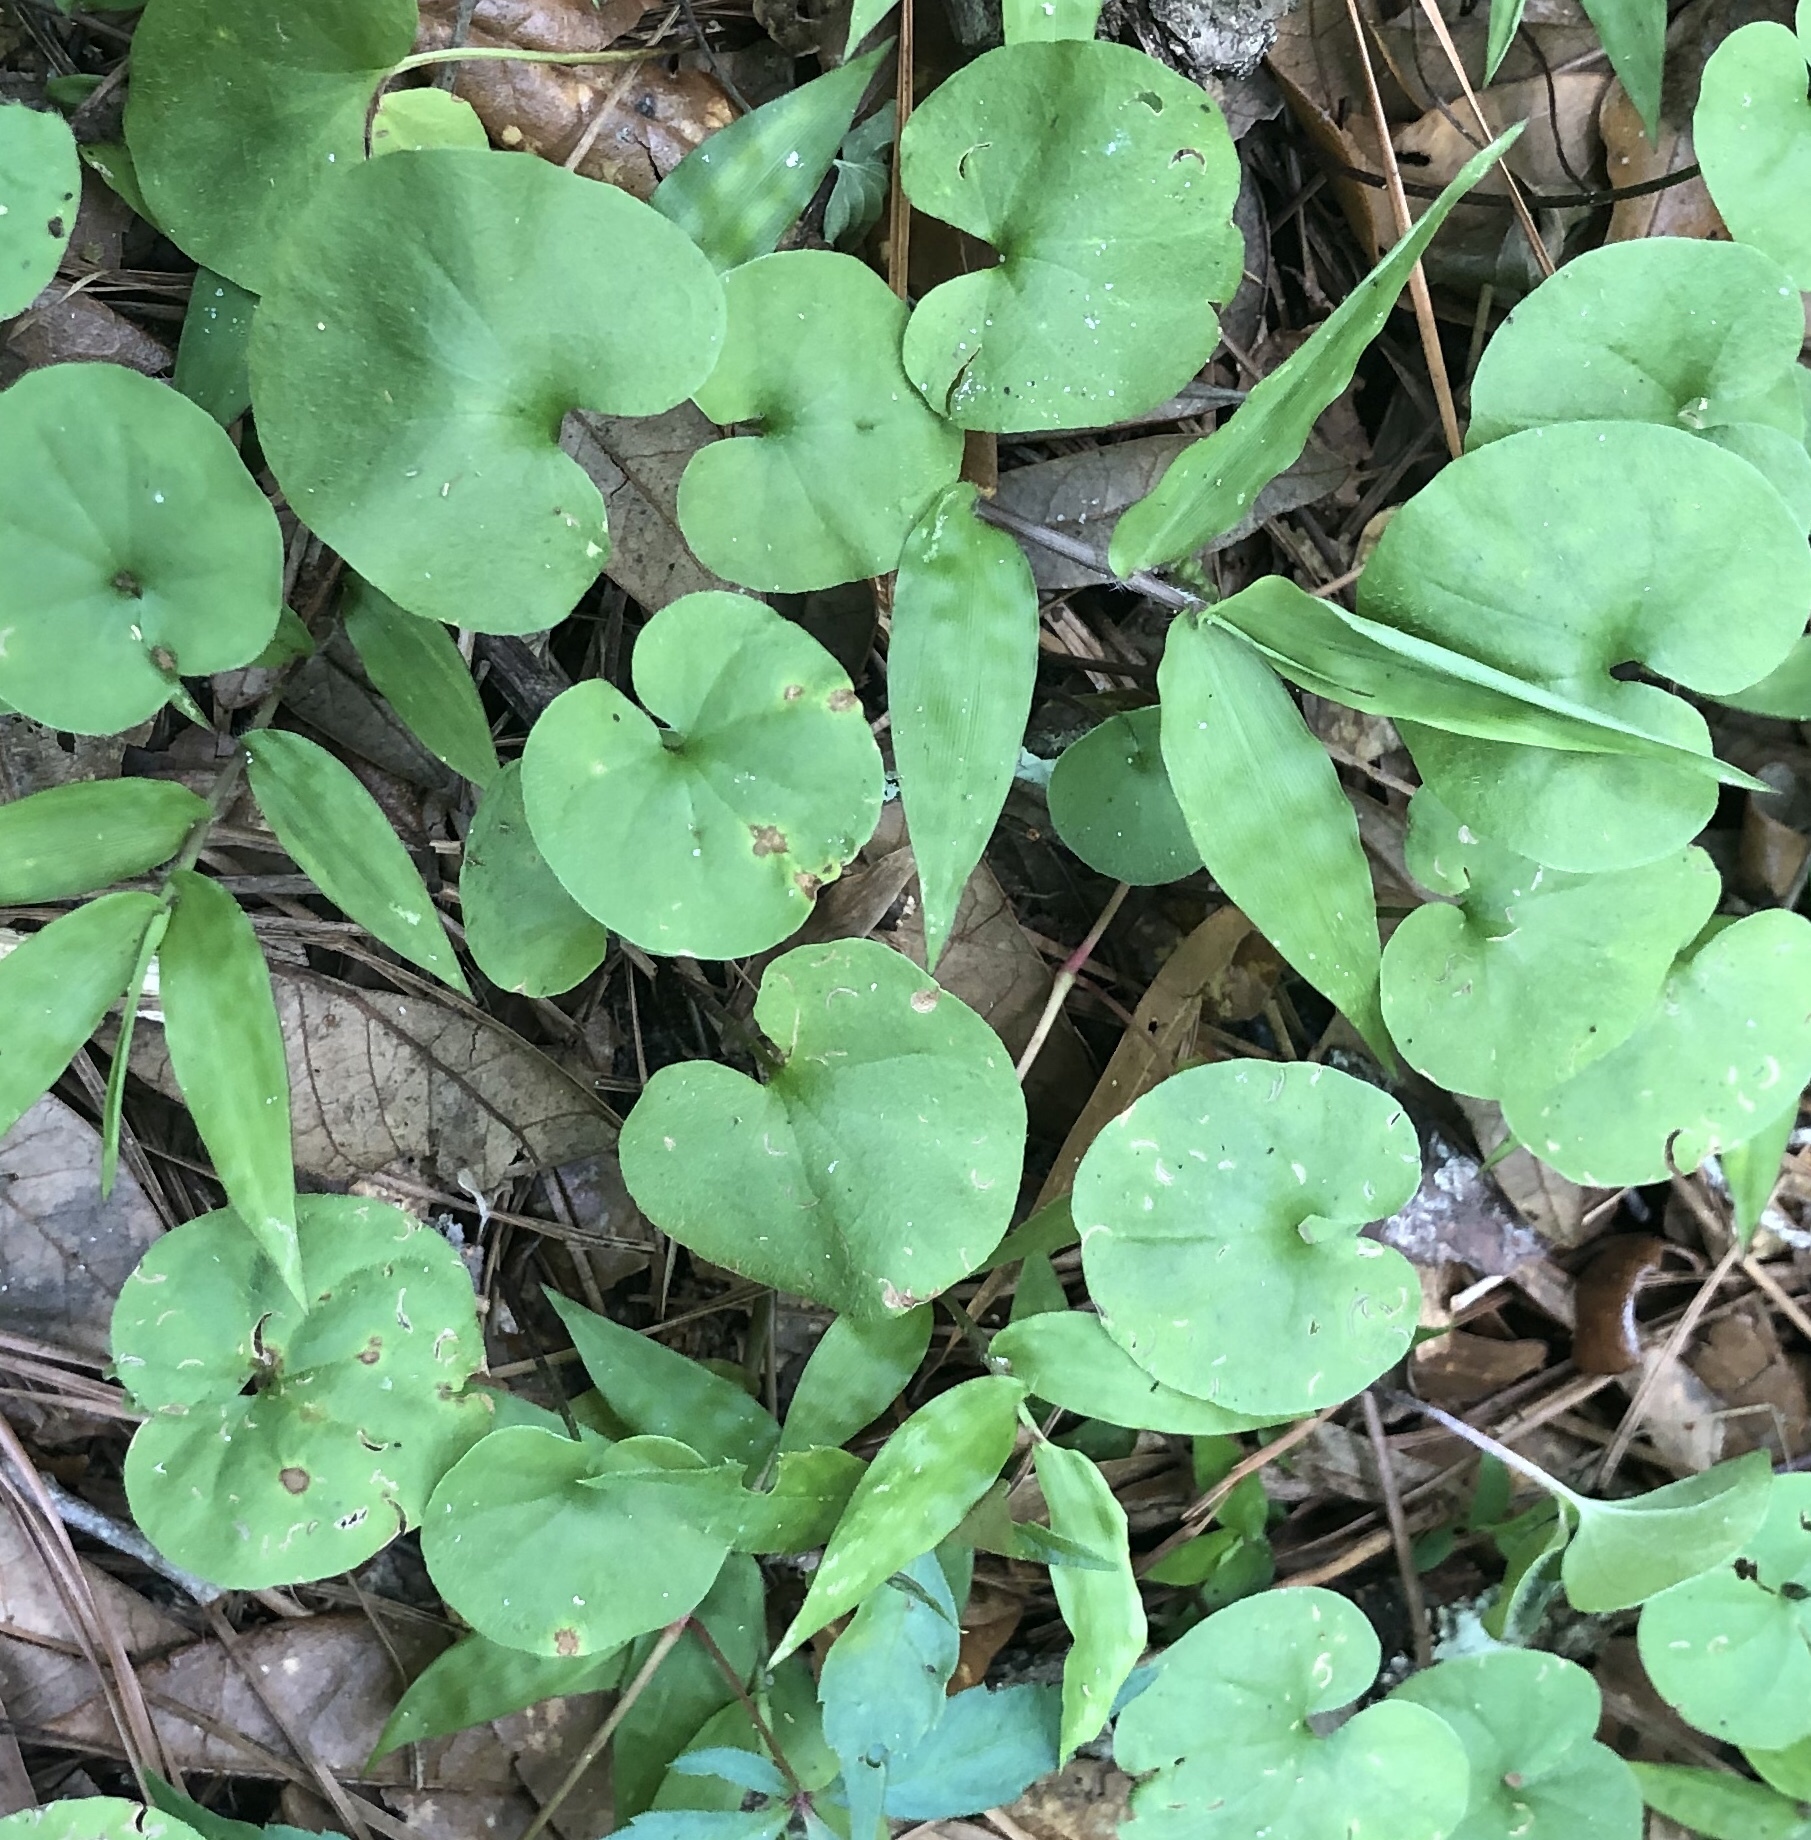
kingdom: Plantae
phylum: Tracheophyta
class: Magnoliopsida
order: Solanales
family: Convolvulaceae
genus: Dichondra
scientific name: Dichondra carolinensis
